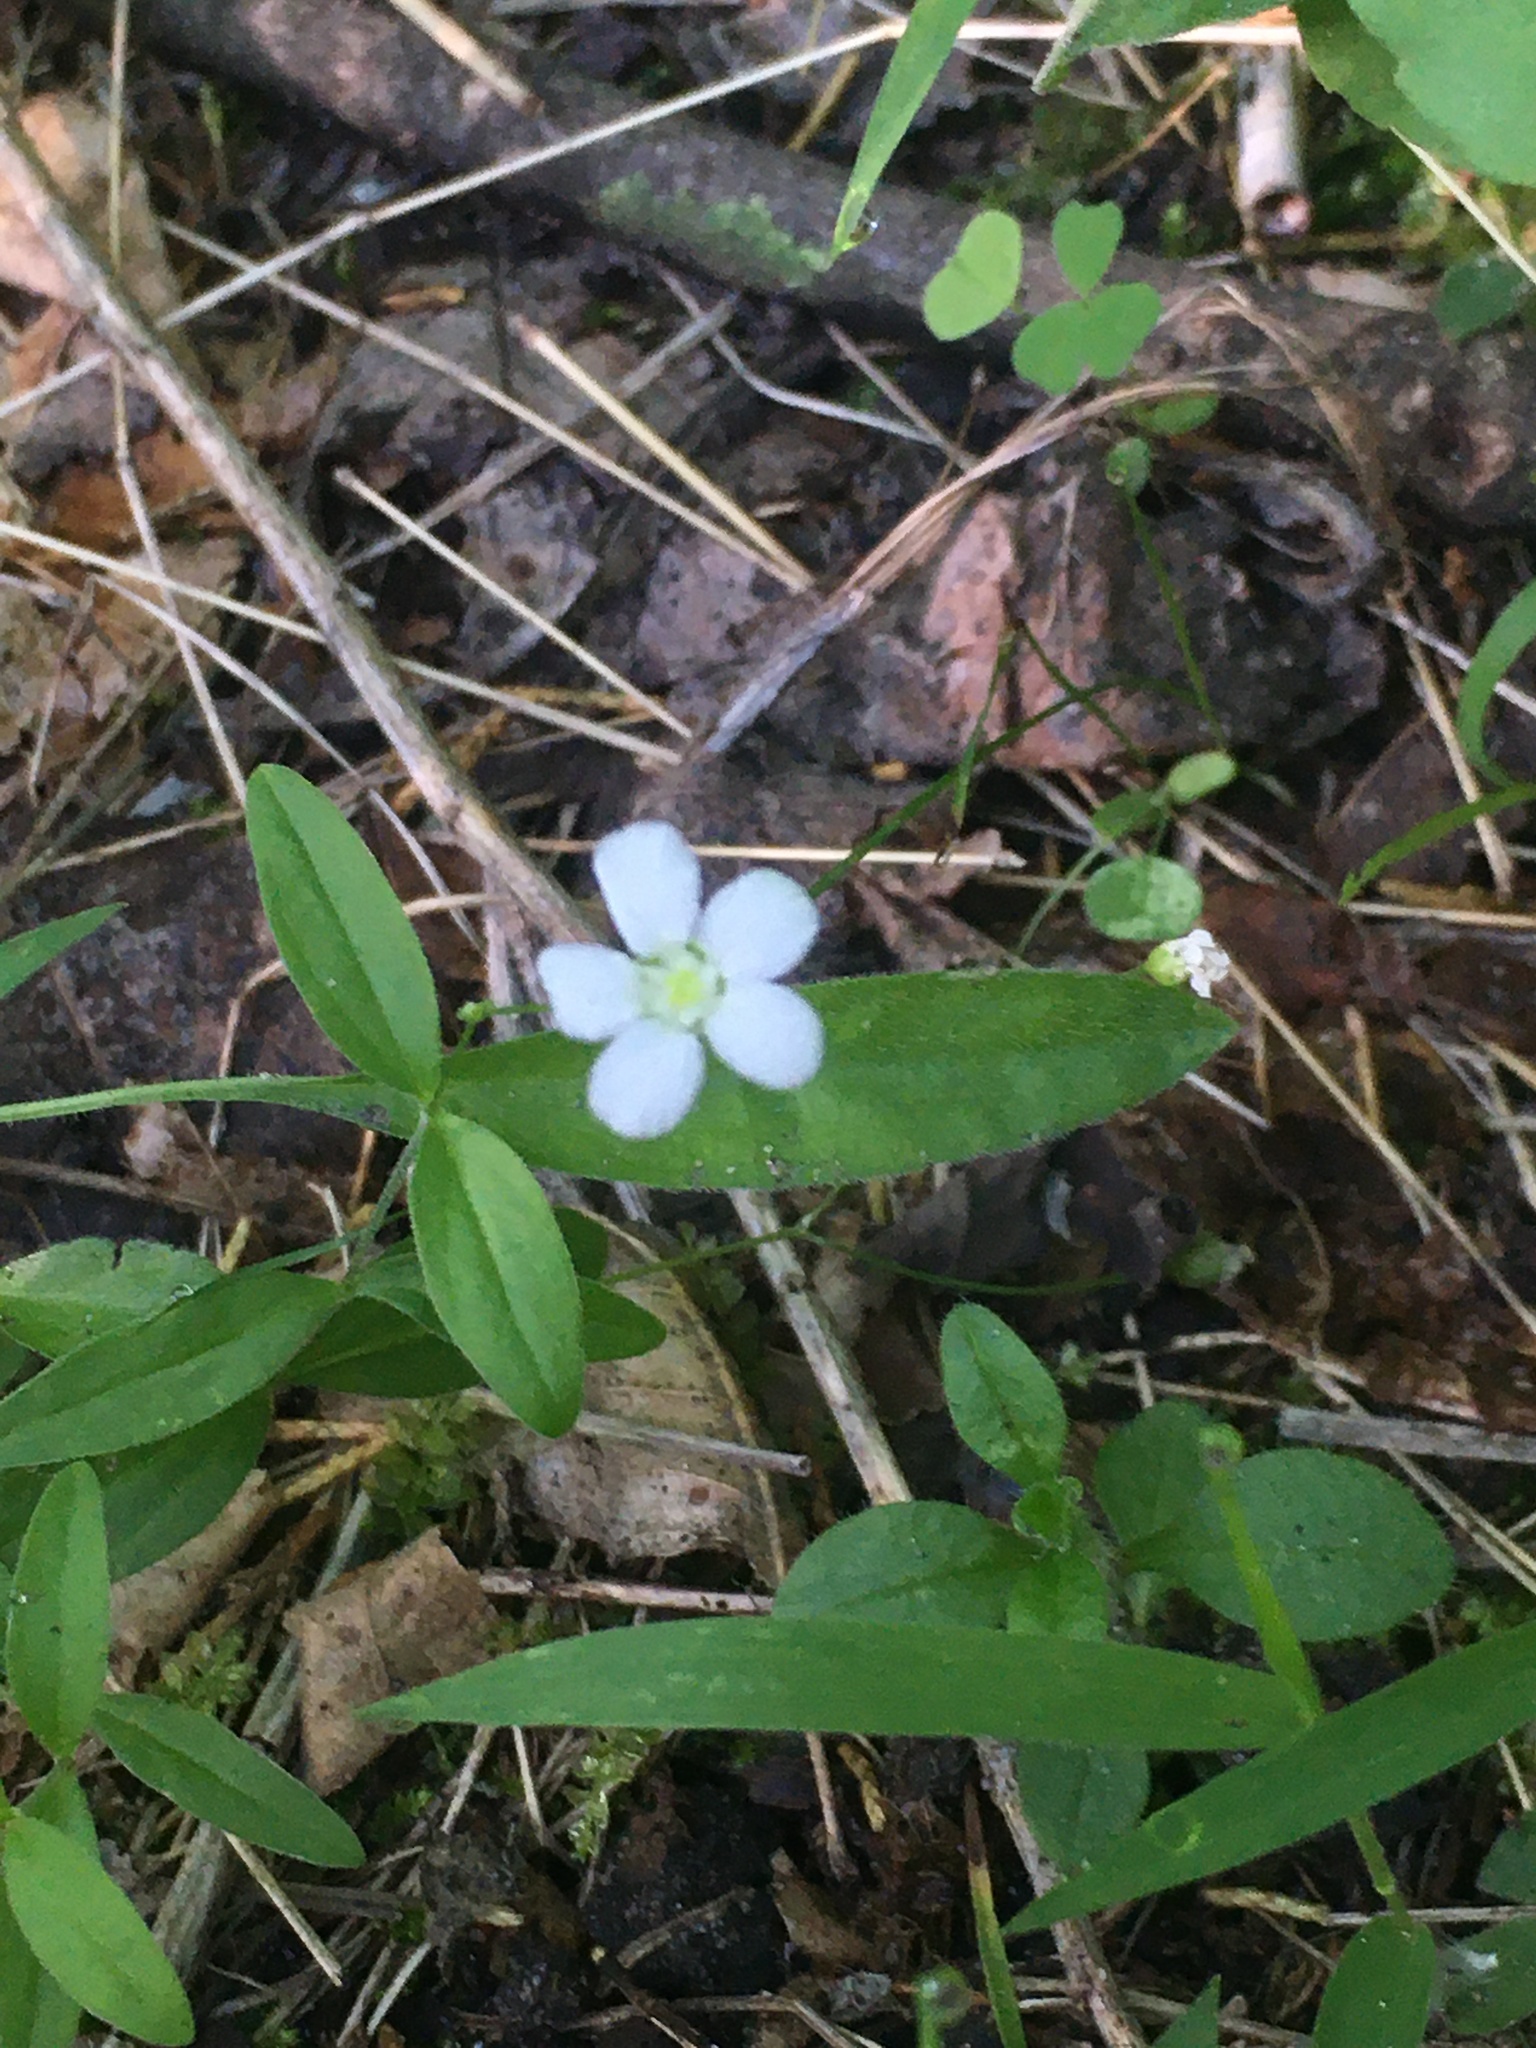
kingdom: Plantae
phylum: Tracheophyta
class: Magnoliopsida
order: Caryophyllales
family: Caryophyllaceae
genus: Moehringia
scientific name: Moehringia lateriflora
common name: Blunt-leaved sandwort
